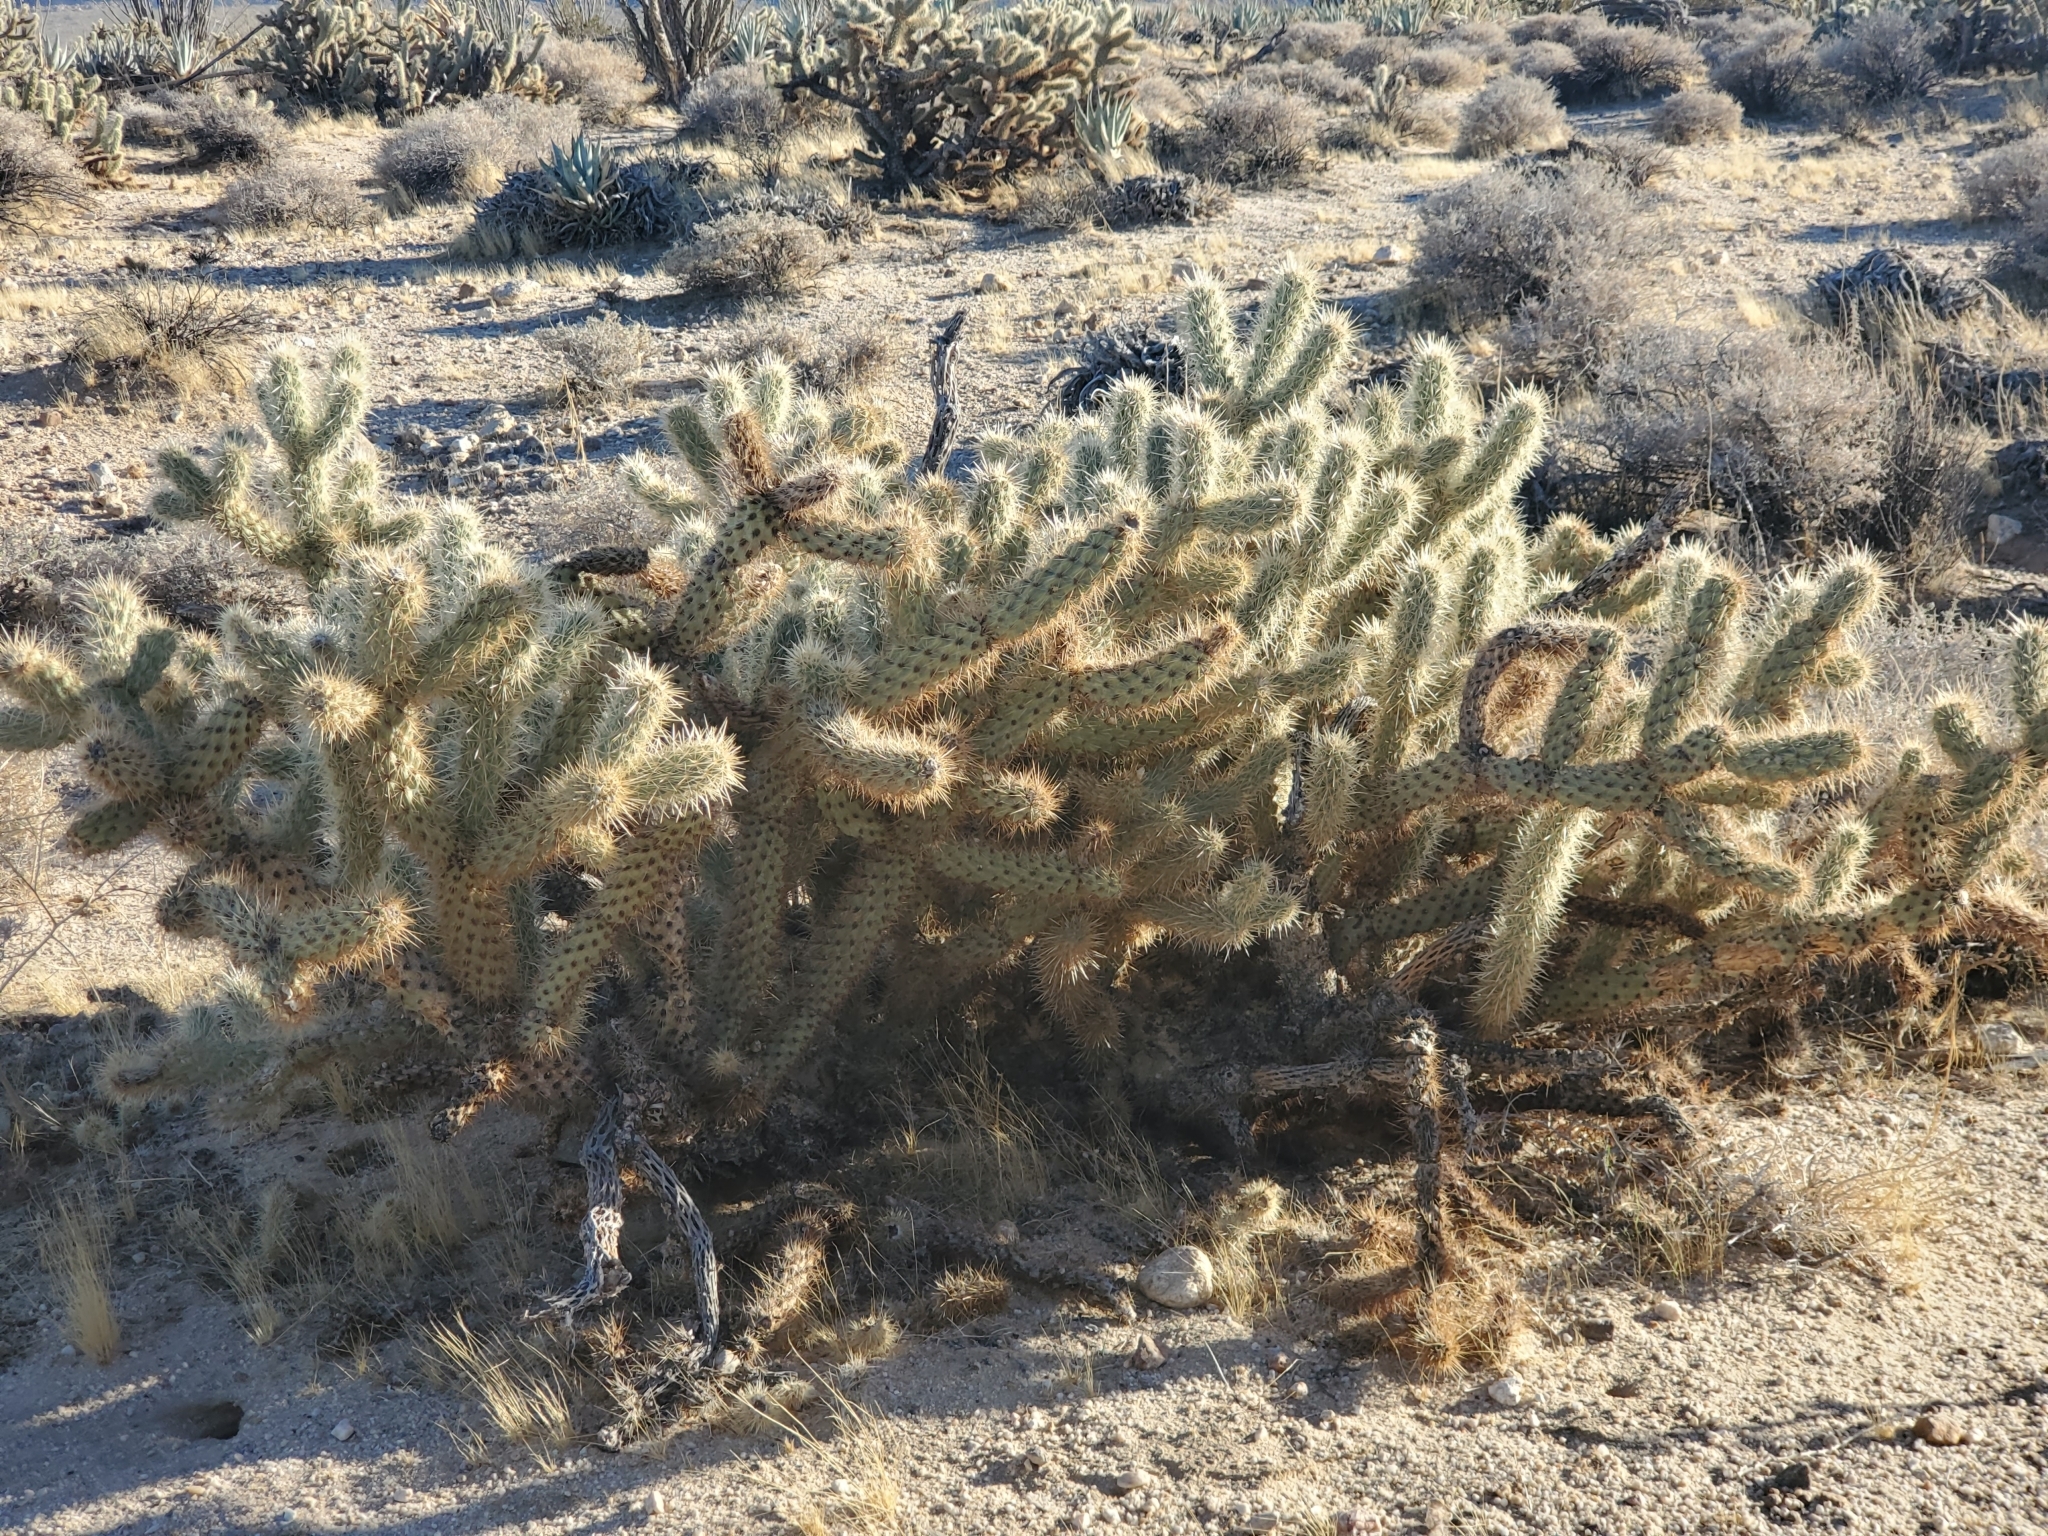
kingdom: Plantae
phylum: Tracheophyta
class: Magnoliopsida
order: Caryophyllales
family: Cactaceae
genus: Cylindropuntia
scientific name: Cylindropuntia wolfii
